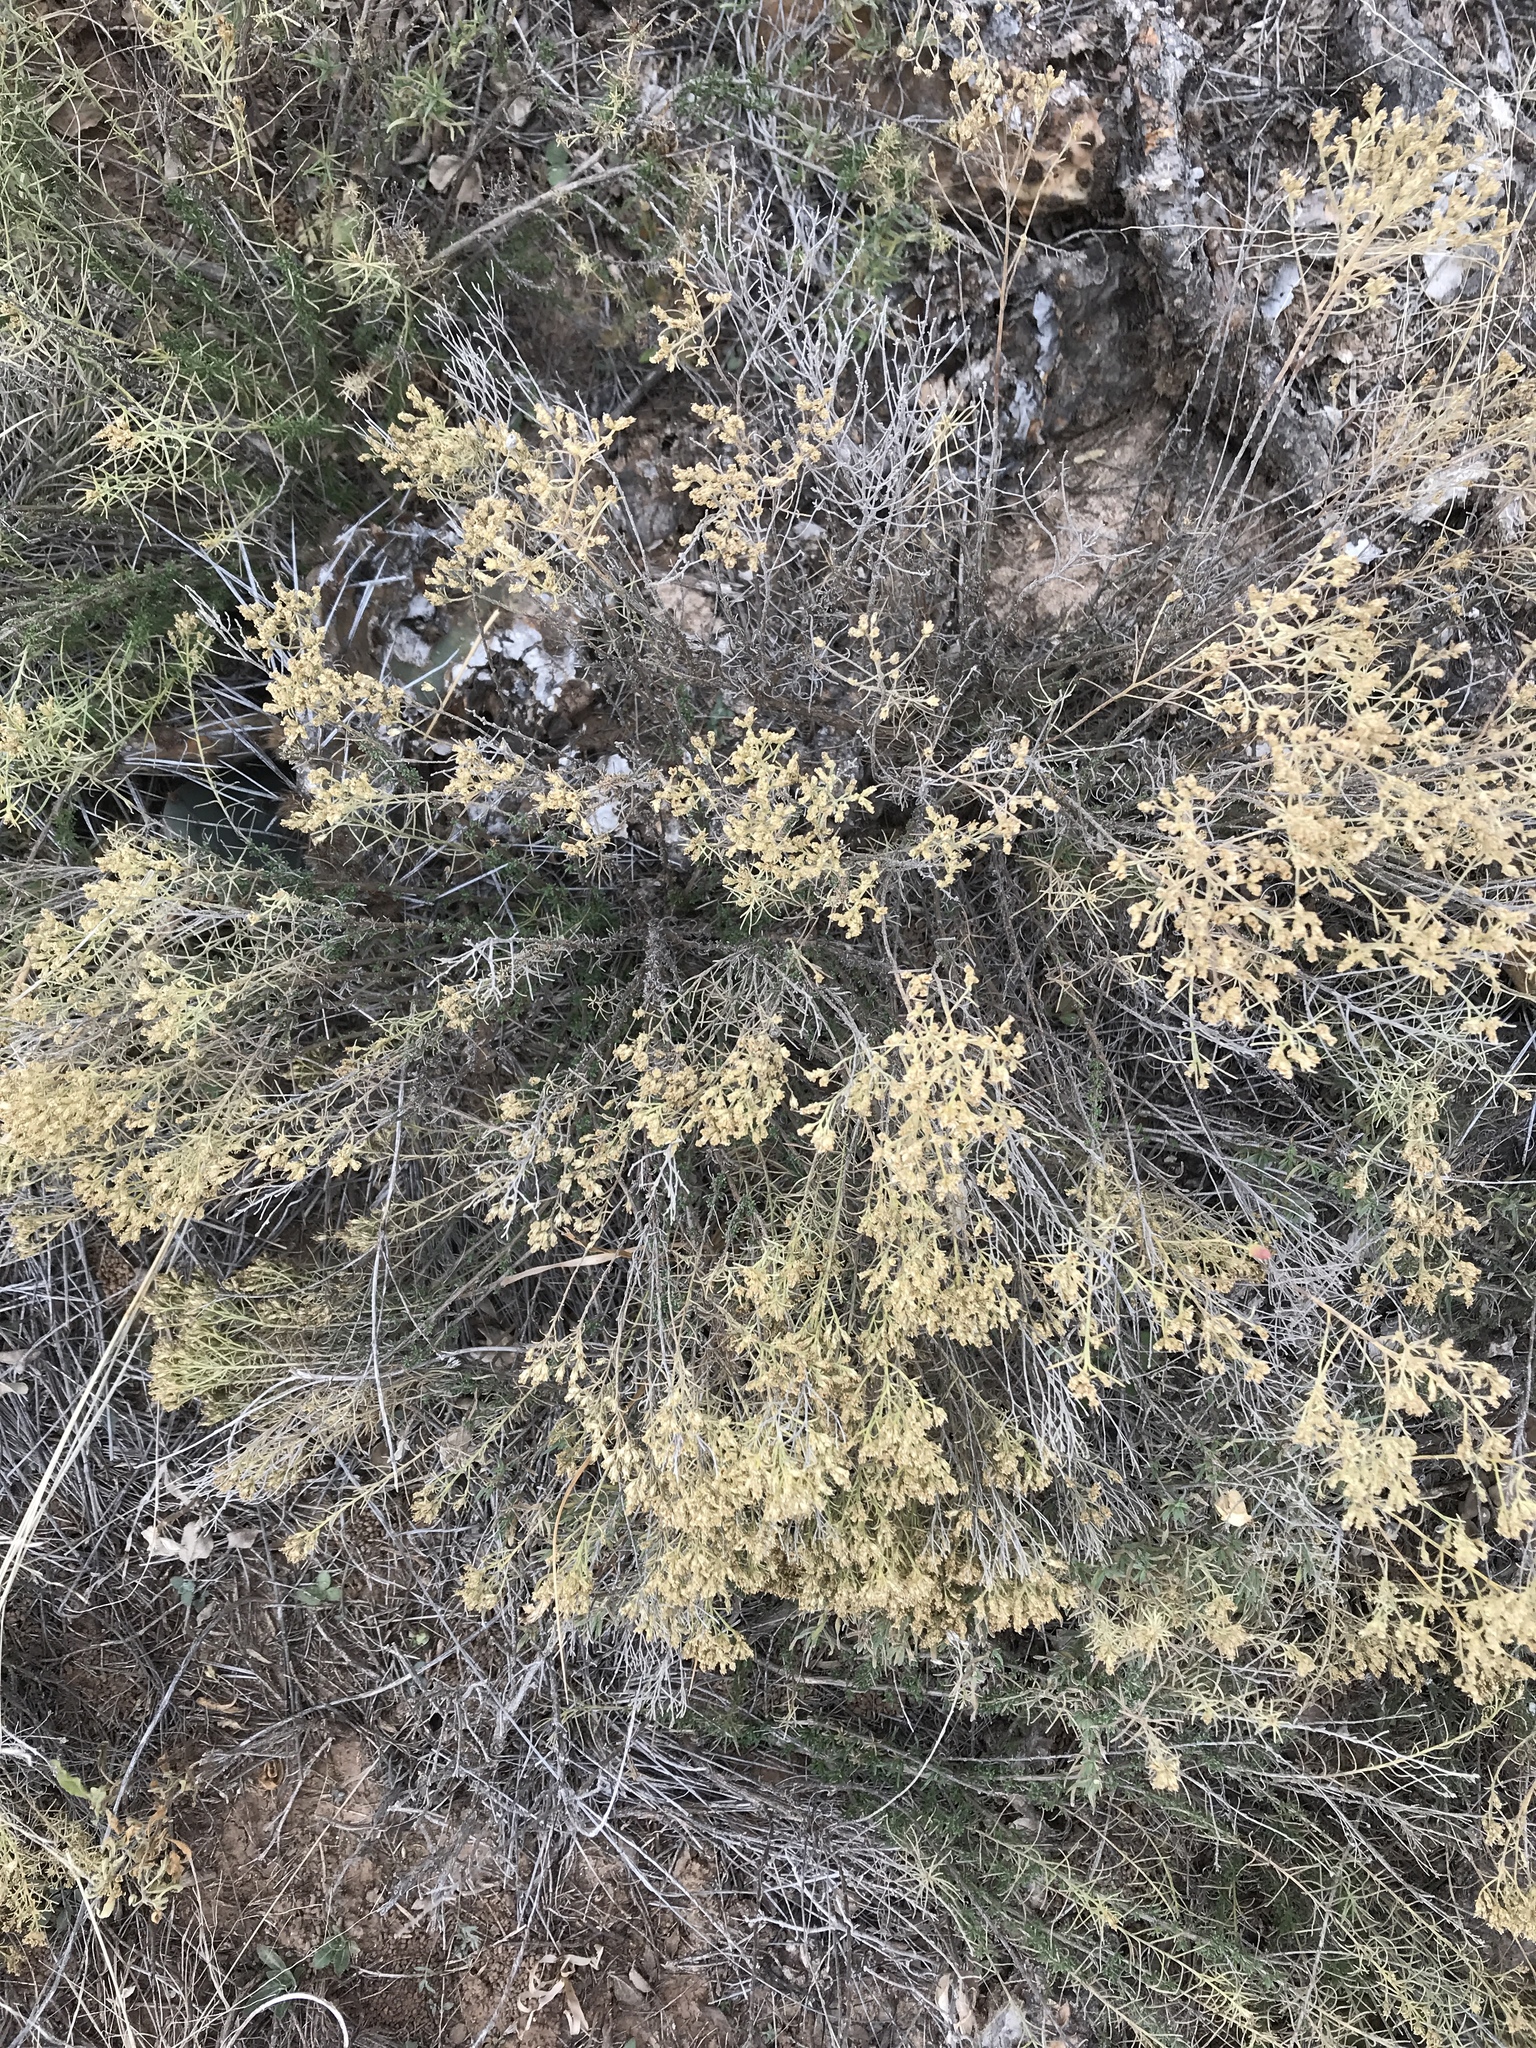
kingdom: Plantae
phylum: Tracheophyta
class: Magnoliopsida
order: Asterales
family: Asteraceae
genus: Gutierrezia
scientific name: Gutierrezia sarothrae
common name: Broom snakeweed
